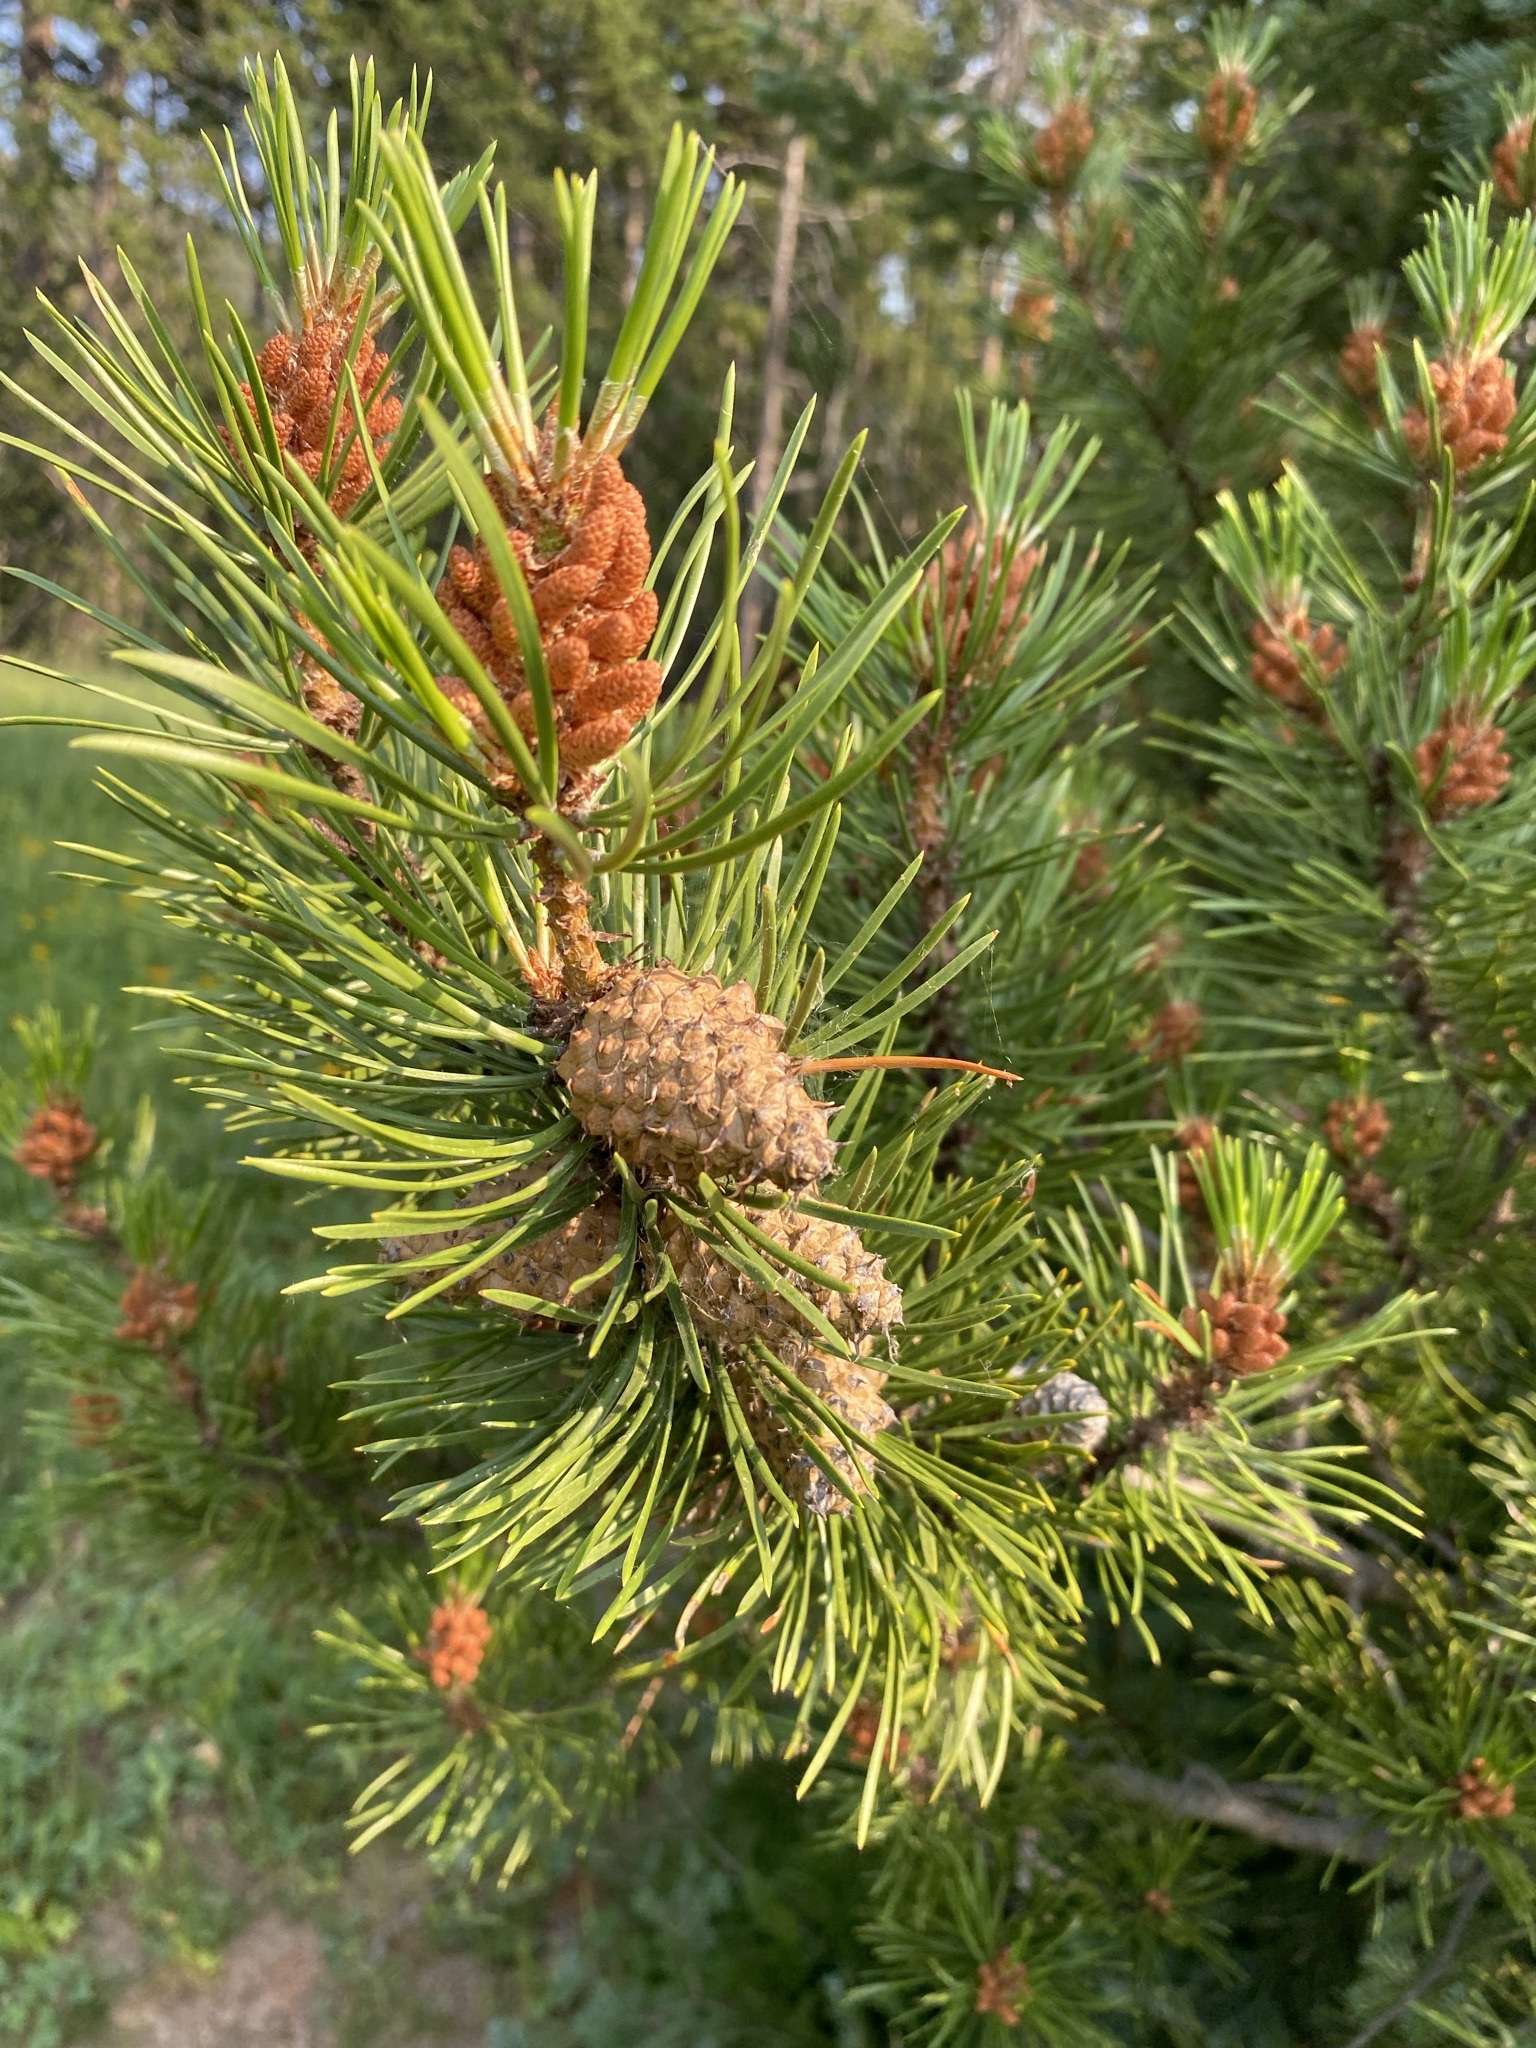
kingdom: Plantae
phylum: Tracheophyta
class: Pinopsida
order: Pinales
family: Pinaceae
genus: Pinus
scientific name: Pinus contorta
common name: Lodgepole pine
